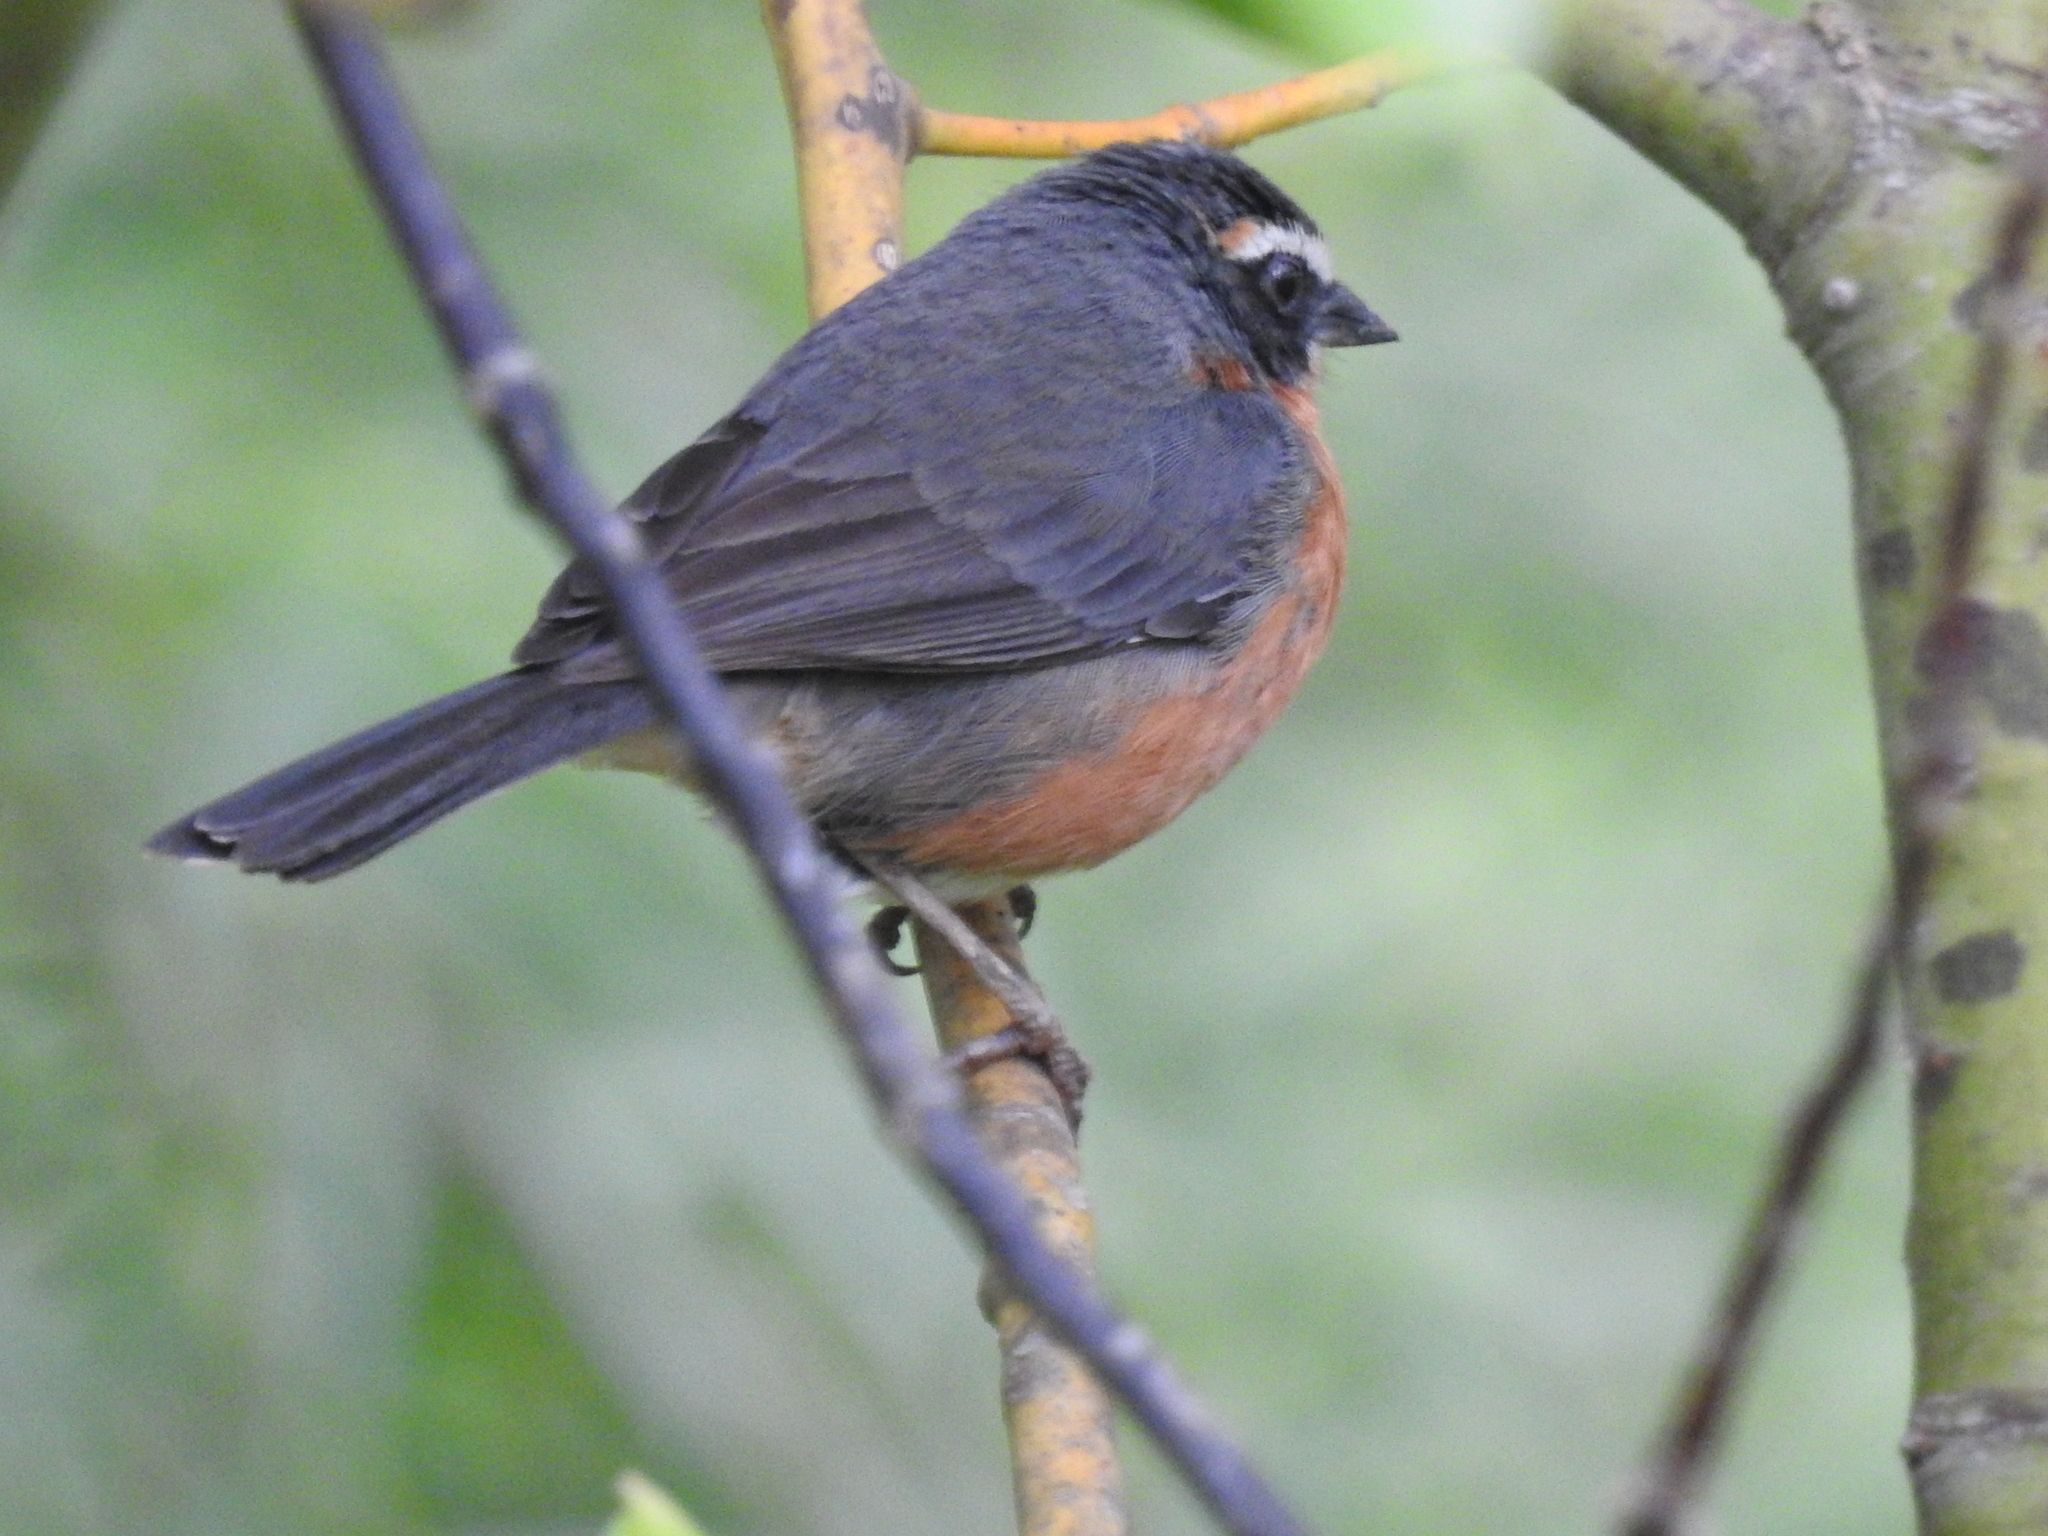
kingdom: Animalia
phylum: Chordata
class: Aves
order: Passeriformes
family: Thraupidae
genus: Poospiza
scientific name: Poospiza nigrorufa
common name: Black-and-rufous warbling finch
